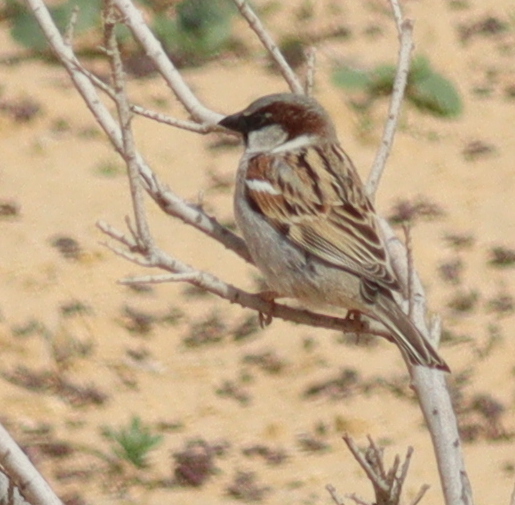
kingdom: Animalia
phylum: Chordata
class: Aves
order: Passeriformes
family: Passeridae
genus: Passer
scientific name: Passer domesticus
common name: House sparrow
